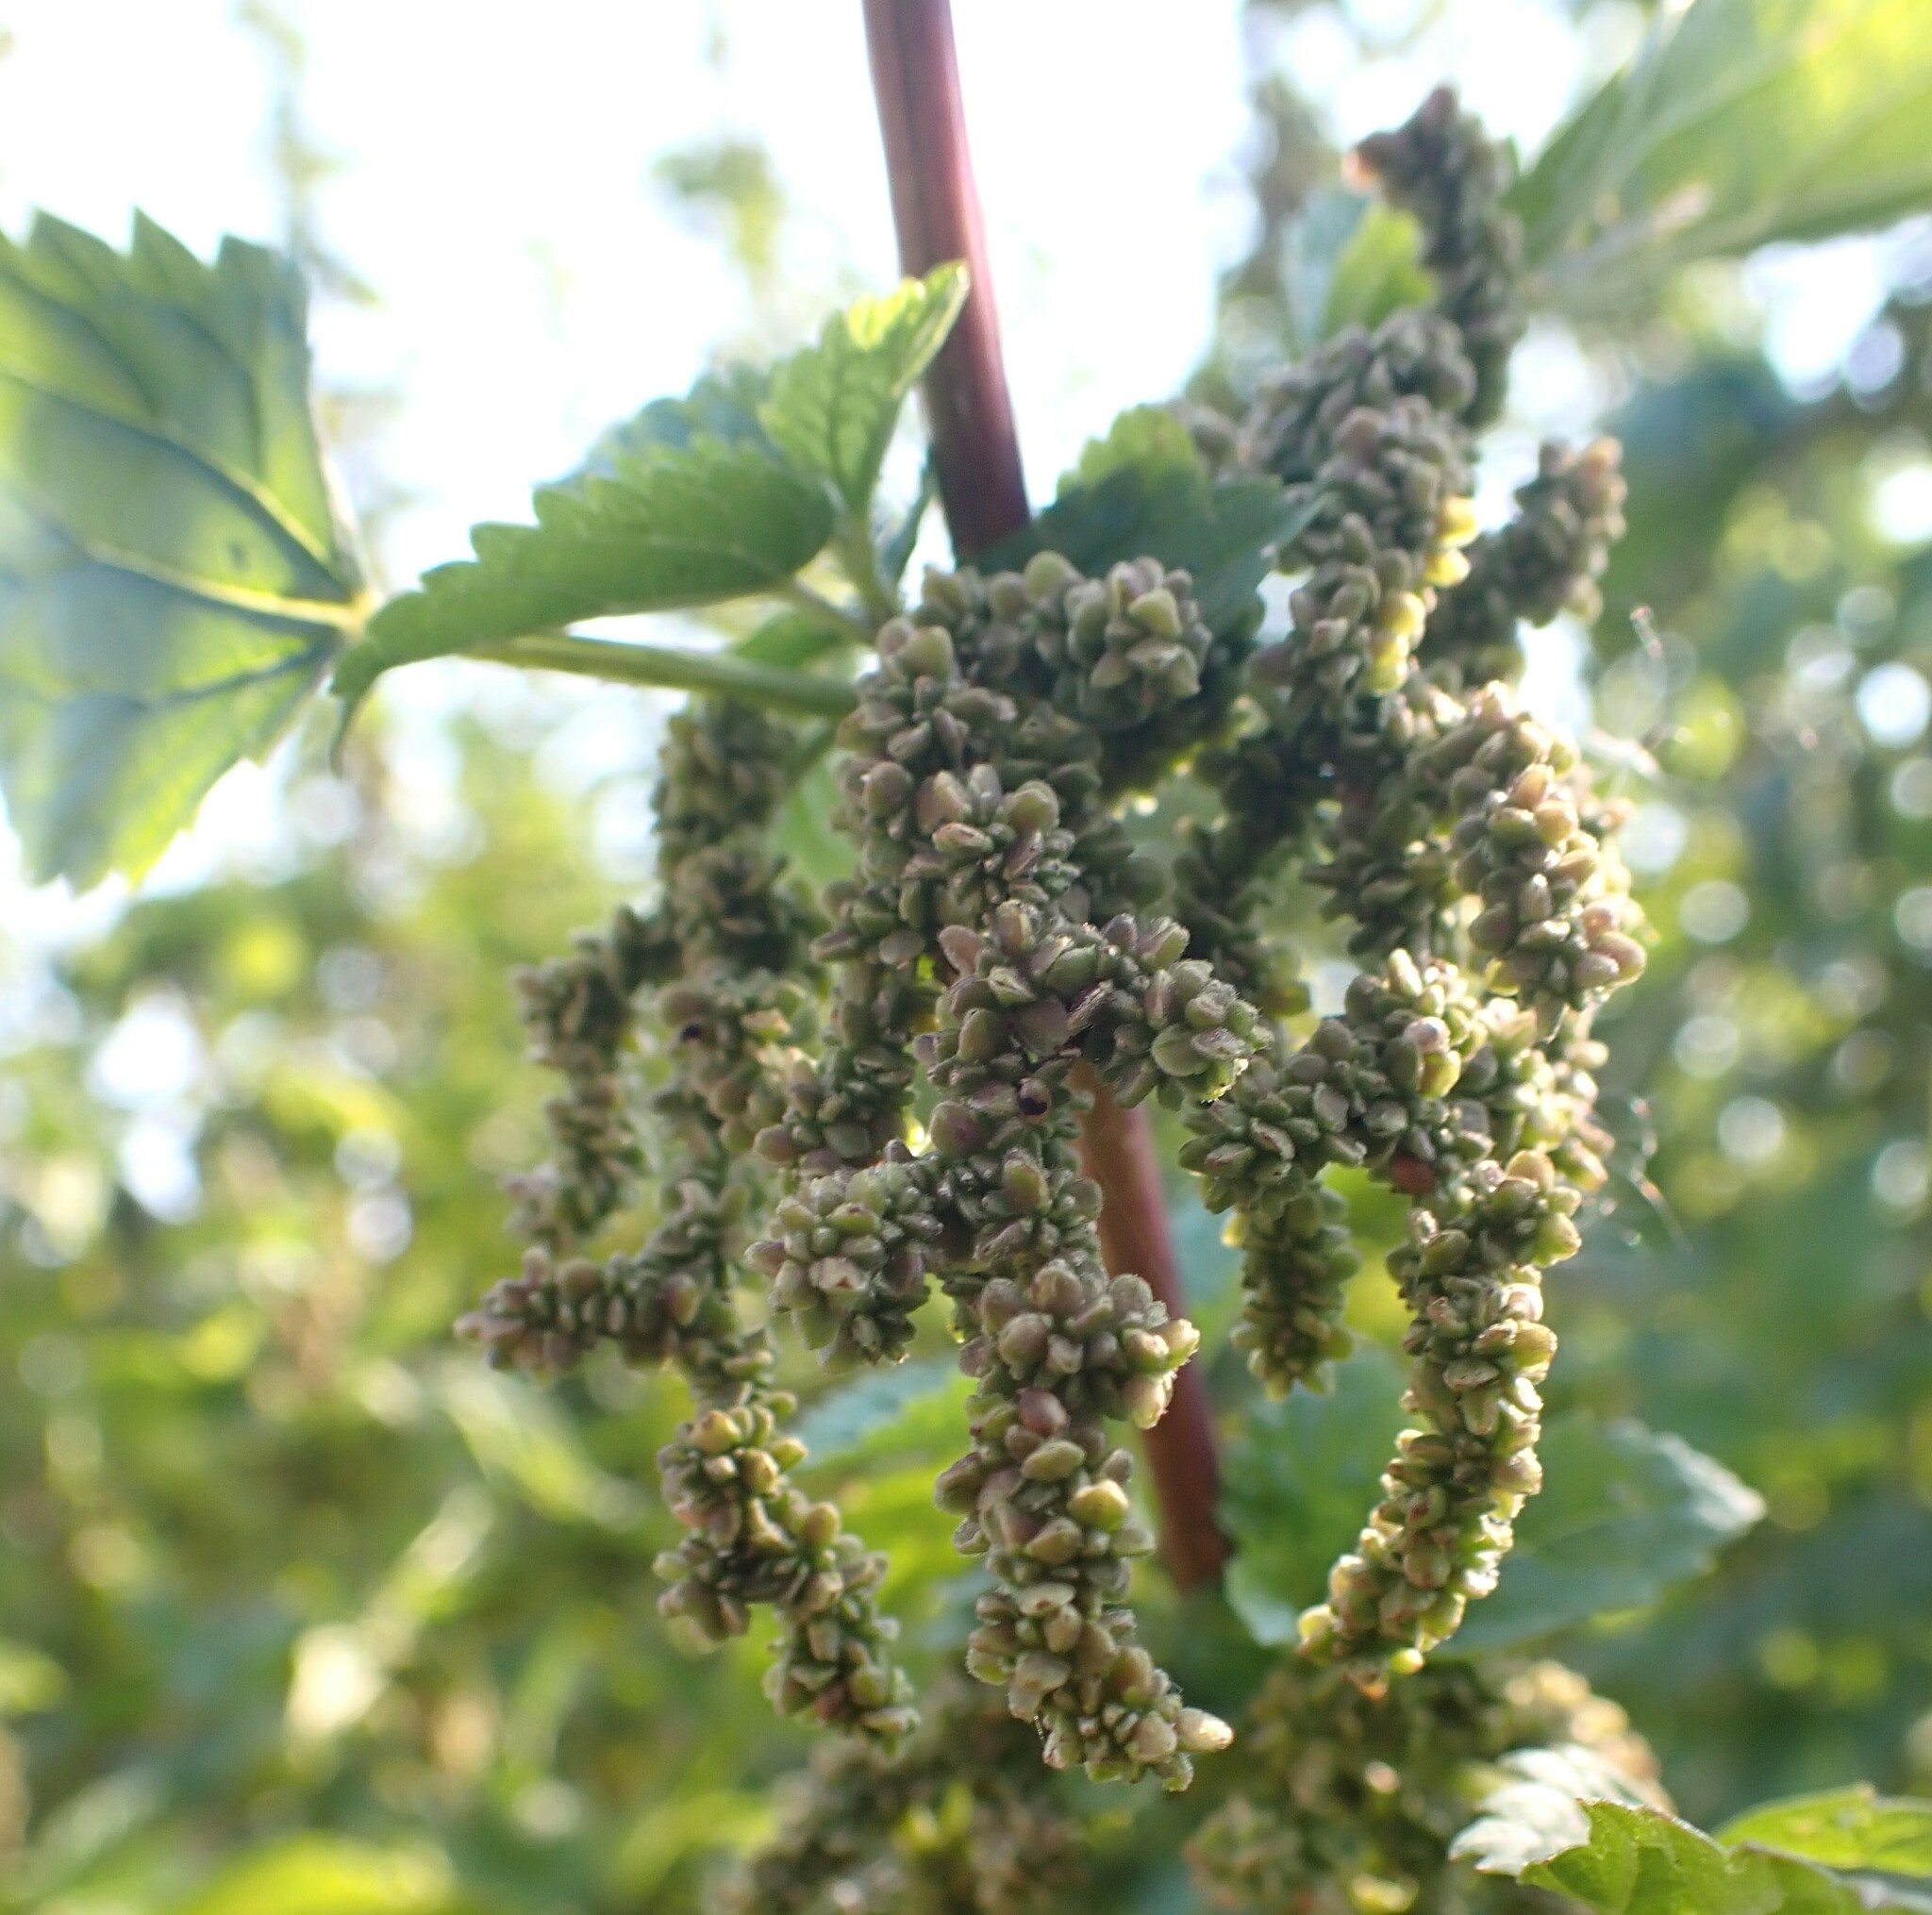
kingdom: Plantae
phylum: Tracheophyta
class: Magnoliopsida
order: Rosales
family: Urticaceae
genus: Urtica
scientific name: Urtica gracilis
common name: Slender stinging nettle
